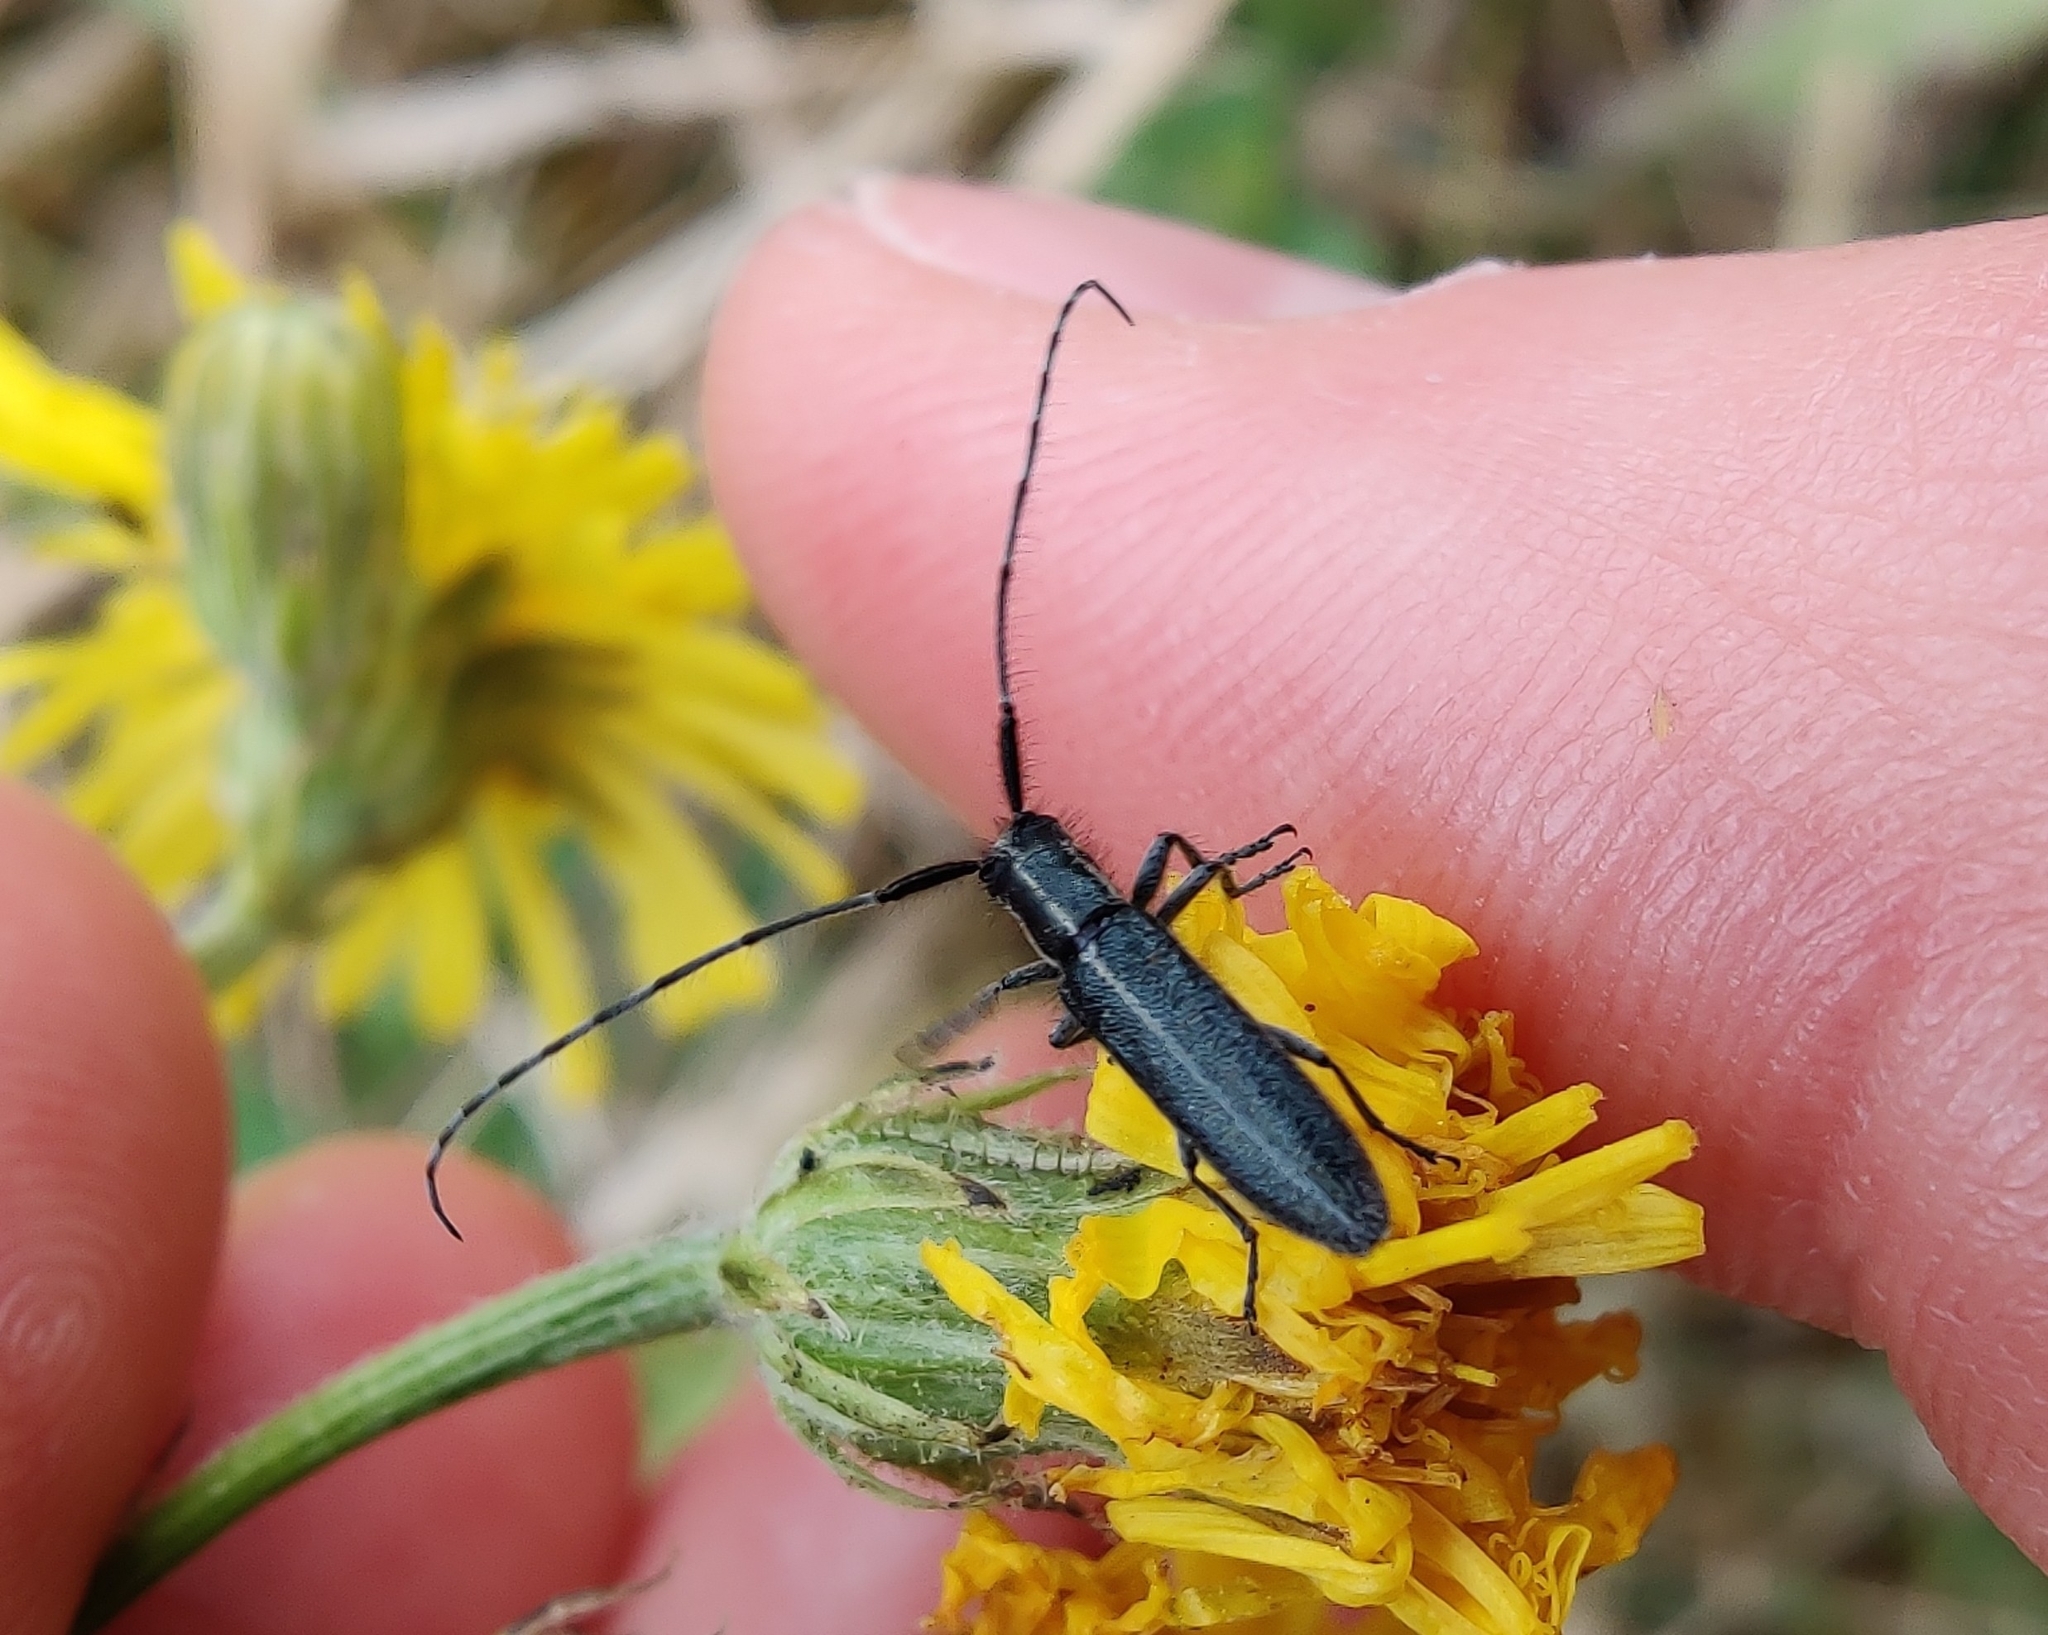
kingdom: Animalia
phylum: Arthropoda
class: Insecta
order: Coleoptera
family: Cerambycidae
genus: Agapanthia
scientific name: Agapanthia cardui
